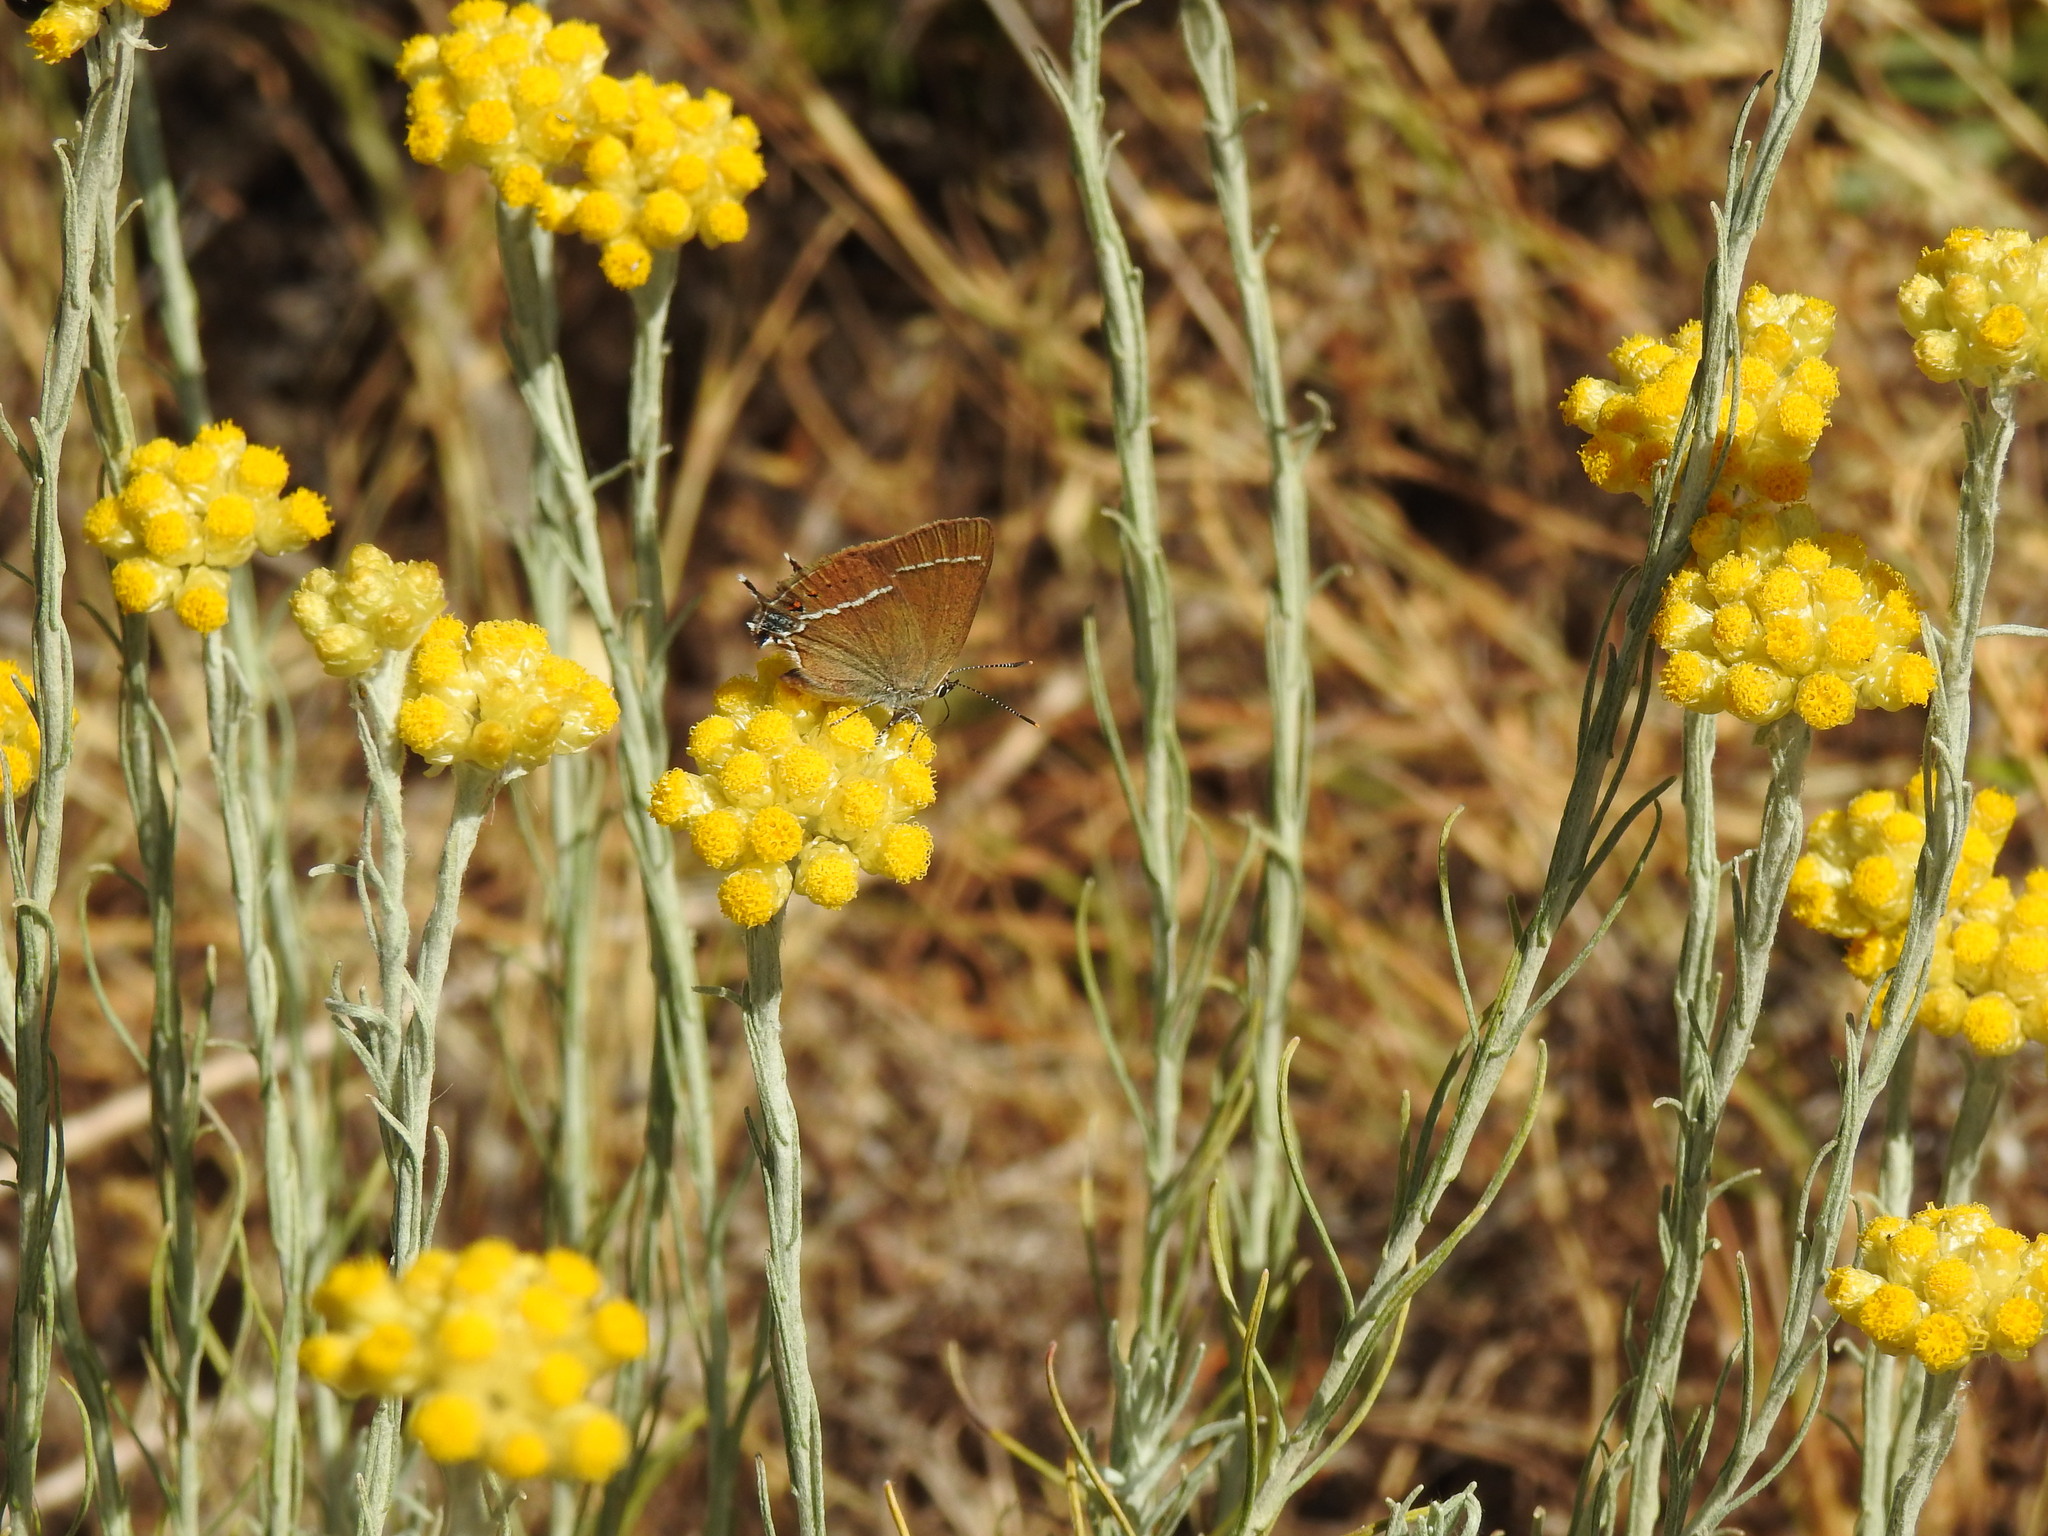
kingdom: Animalia
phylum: Arthropoda
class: Insecta
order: Lepidoptera
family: Lycaenidae
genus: Tuttiola
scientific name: Tuttiola spini
